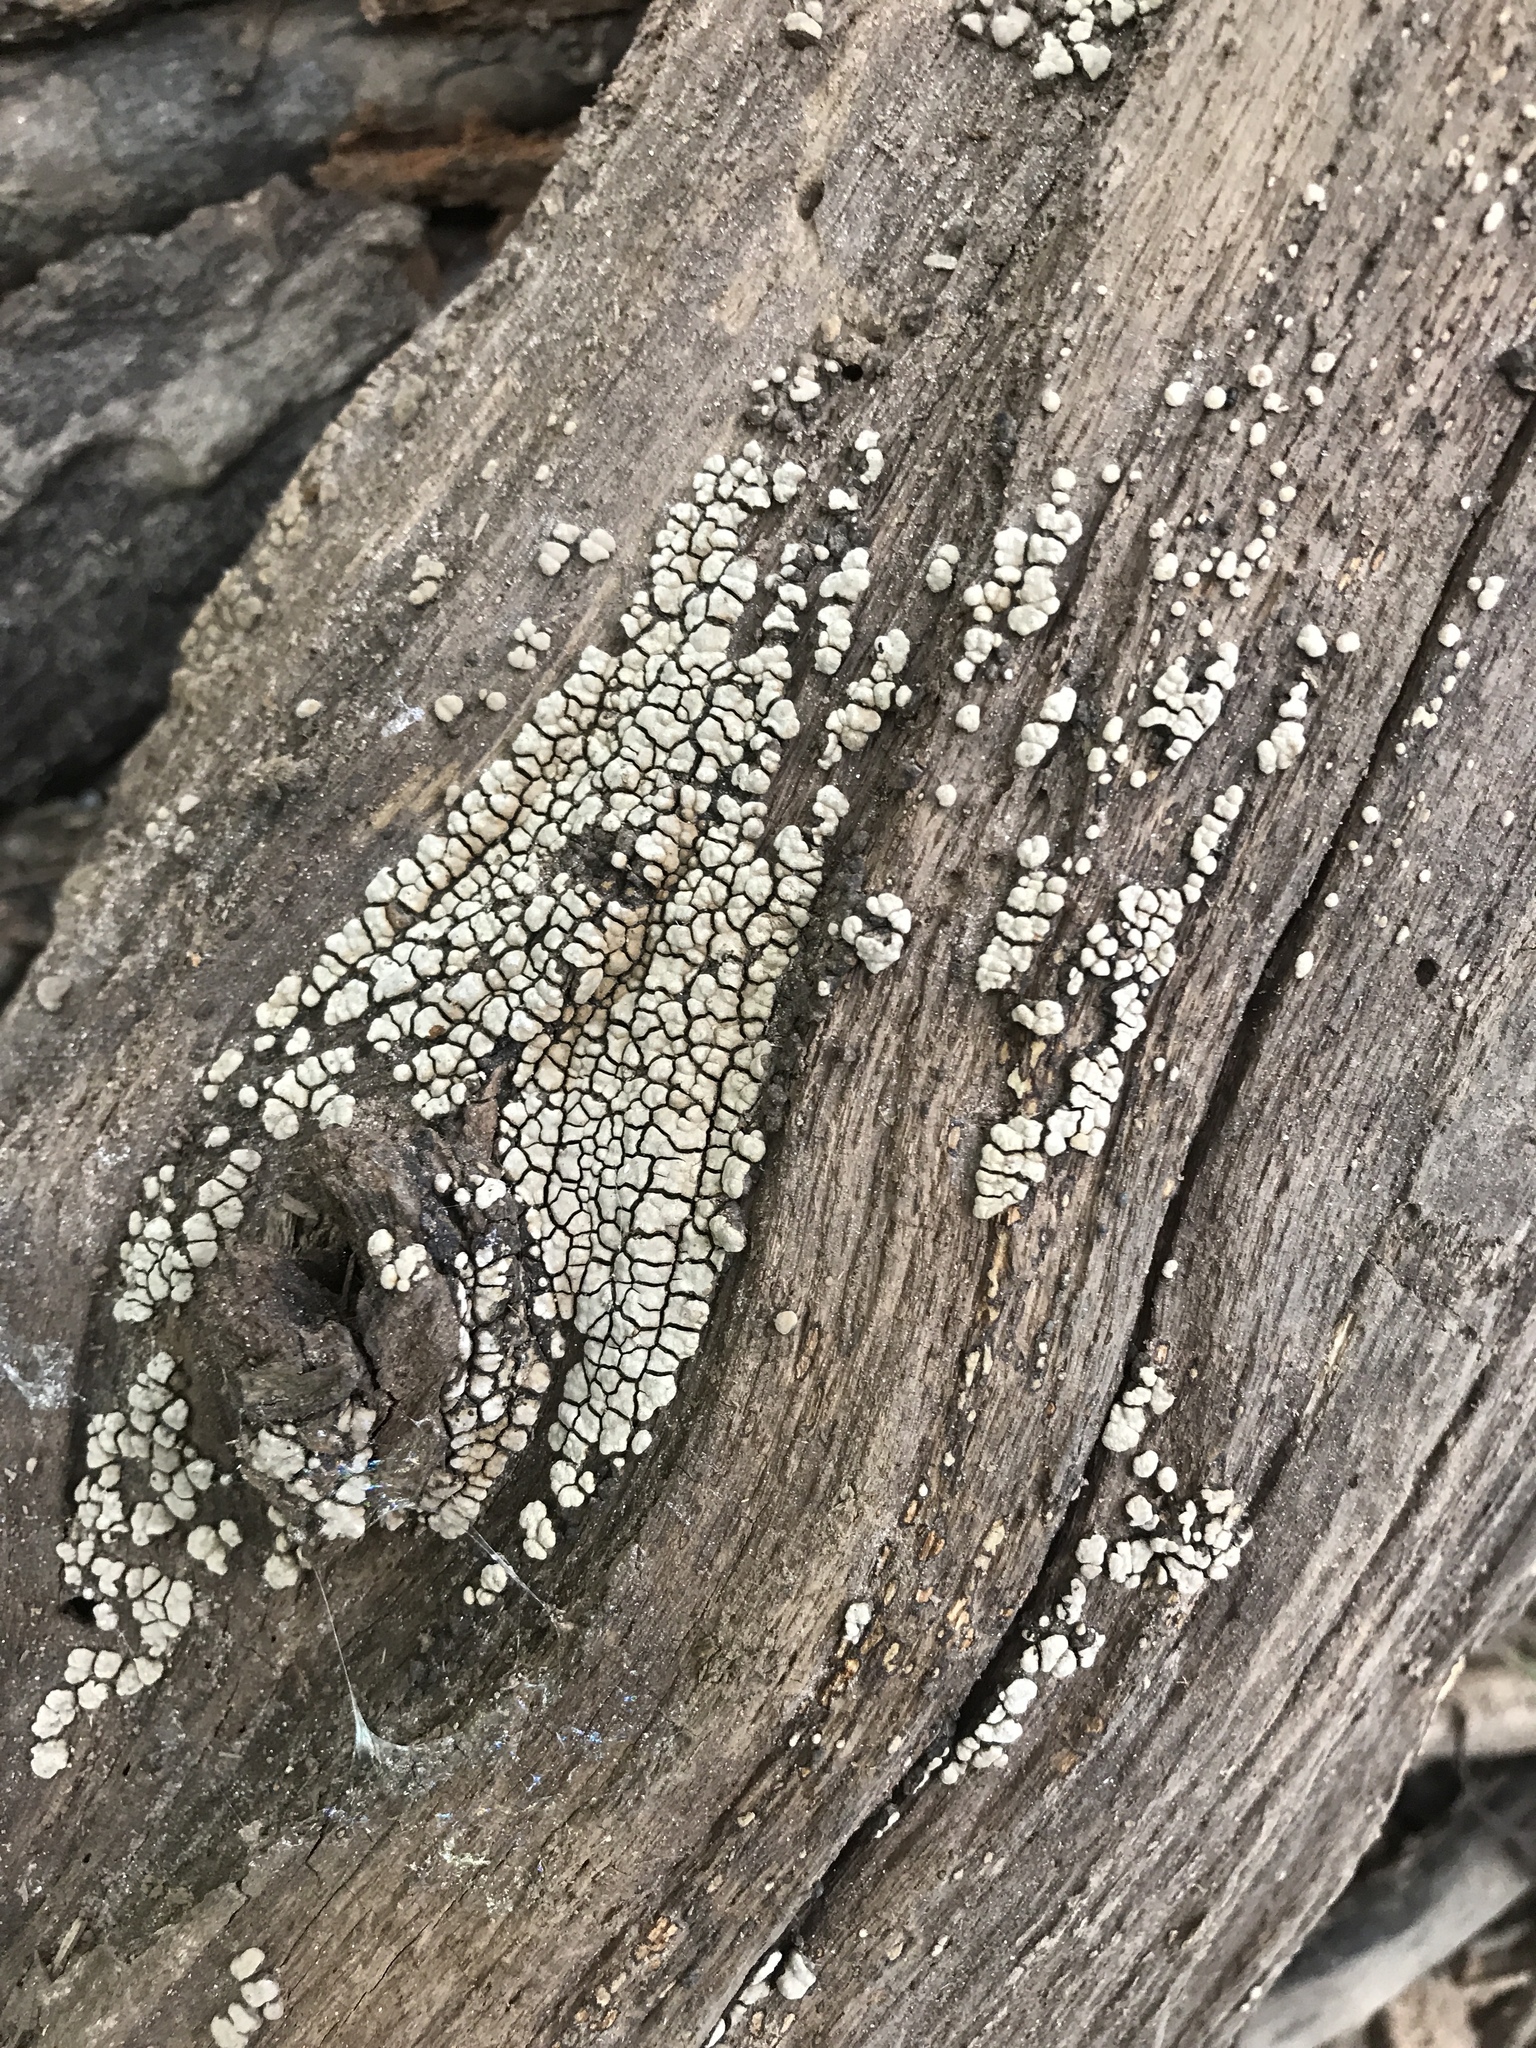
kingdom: Fungi
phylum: Basidiomycota
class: Agaricomycetes
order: Russulales
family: Stereaceae
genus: Xylobolus
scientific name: Xylobolus frustulatus
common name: Ceramic parchment
